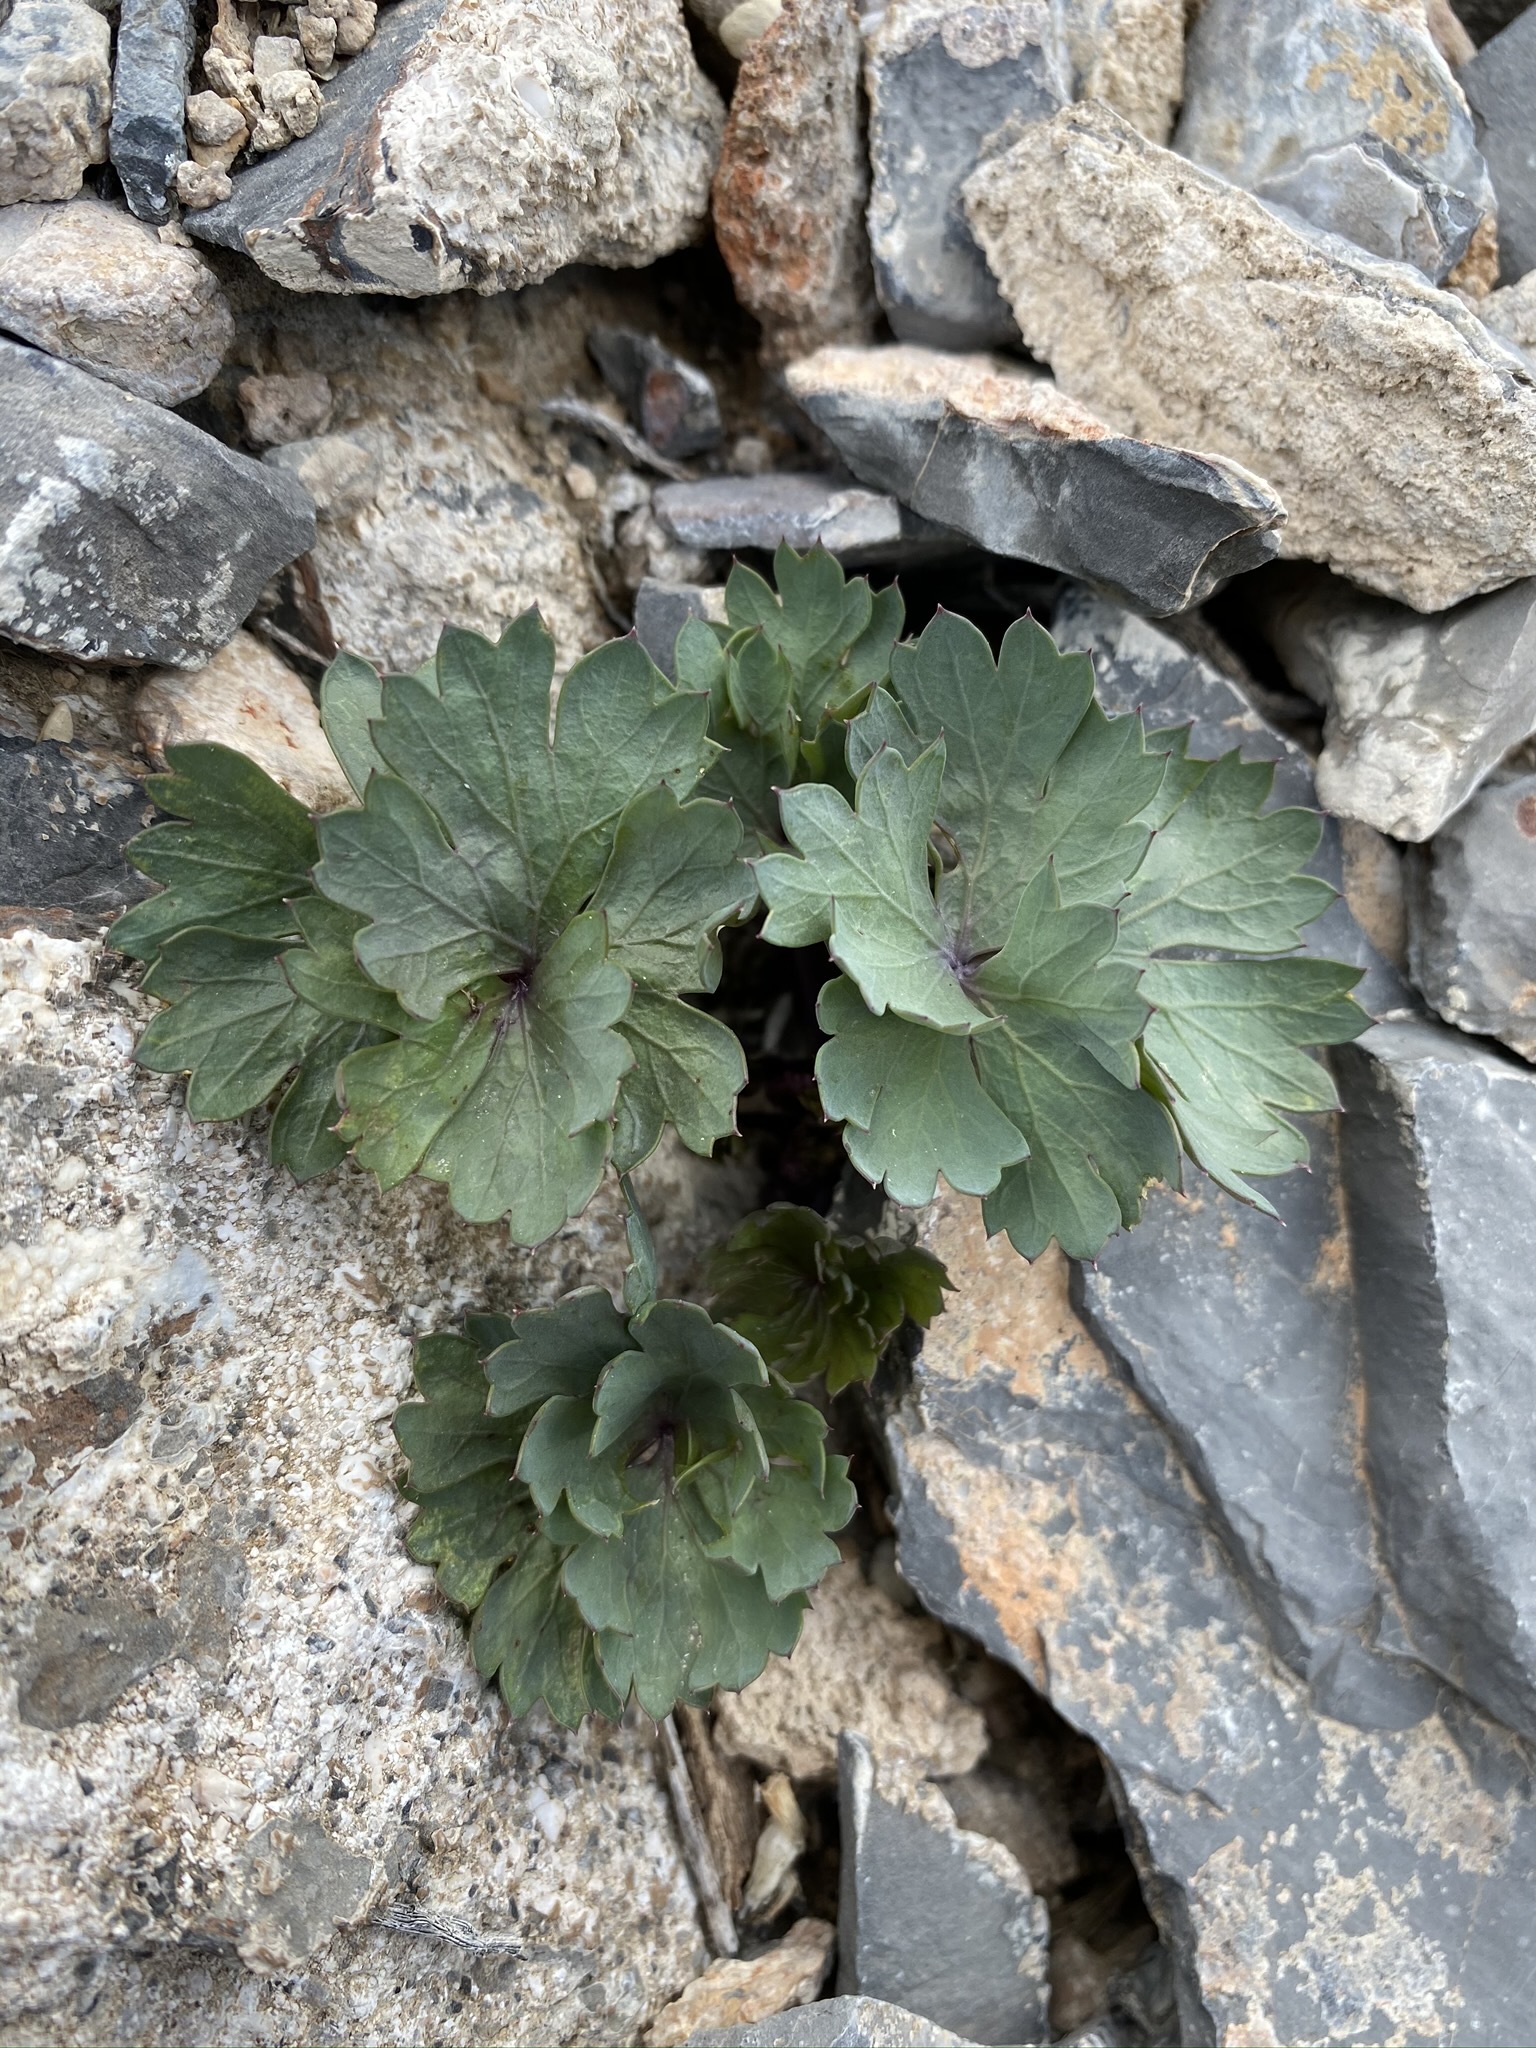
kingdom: Plantae
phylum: Tracheophyta
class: Magnoliopsida
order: Apiales
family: Apiaceae
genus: Cymopterus
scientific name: Cymopterus gilmanii
